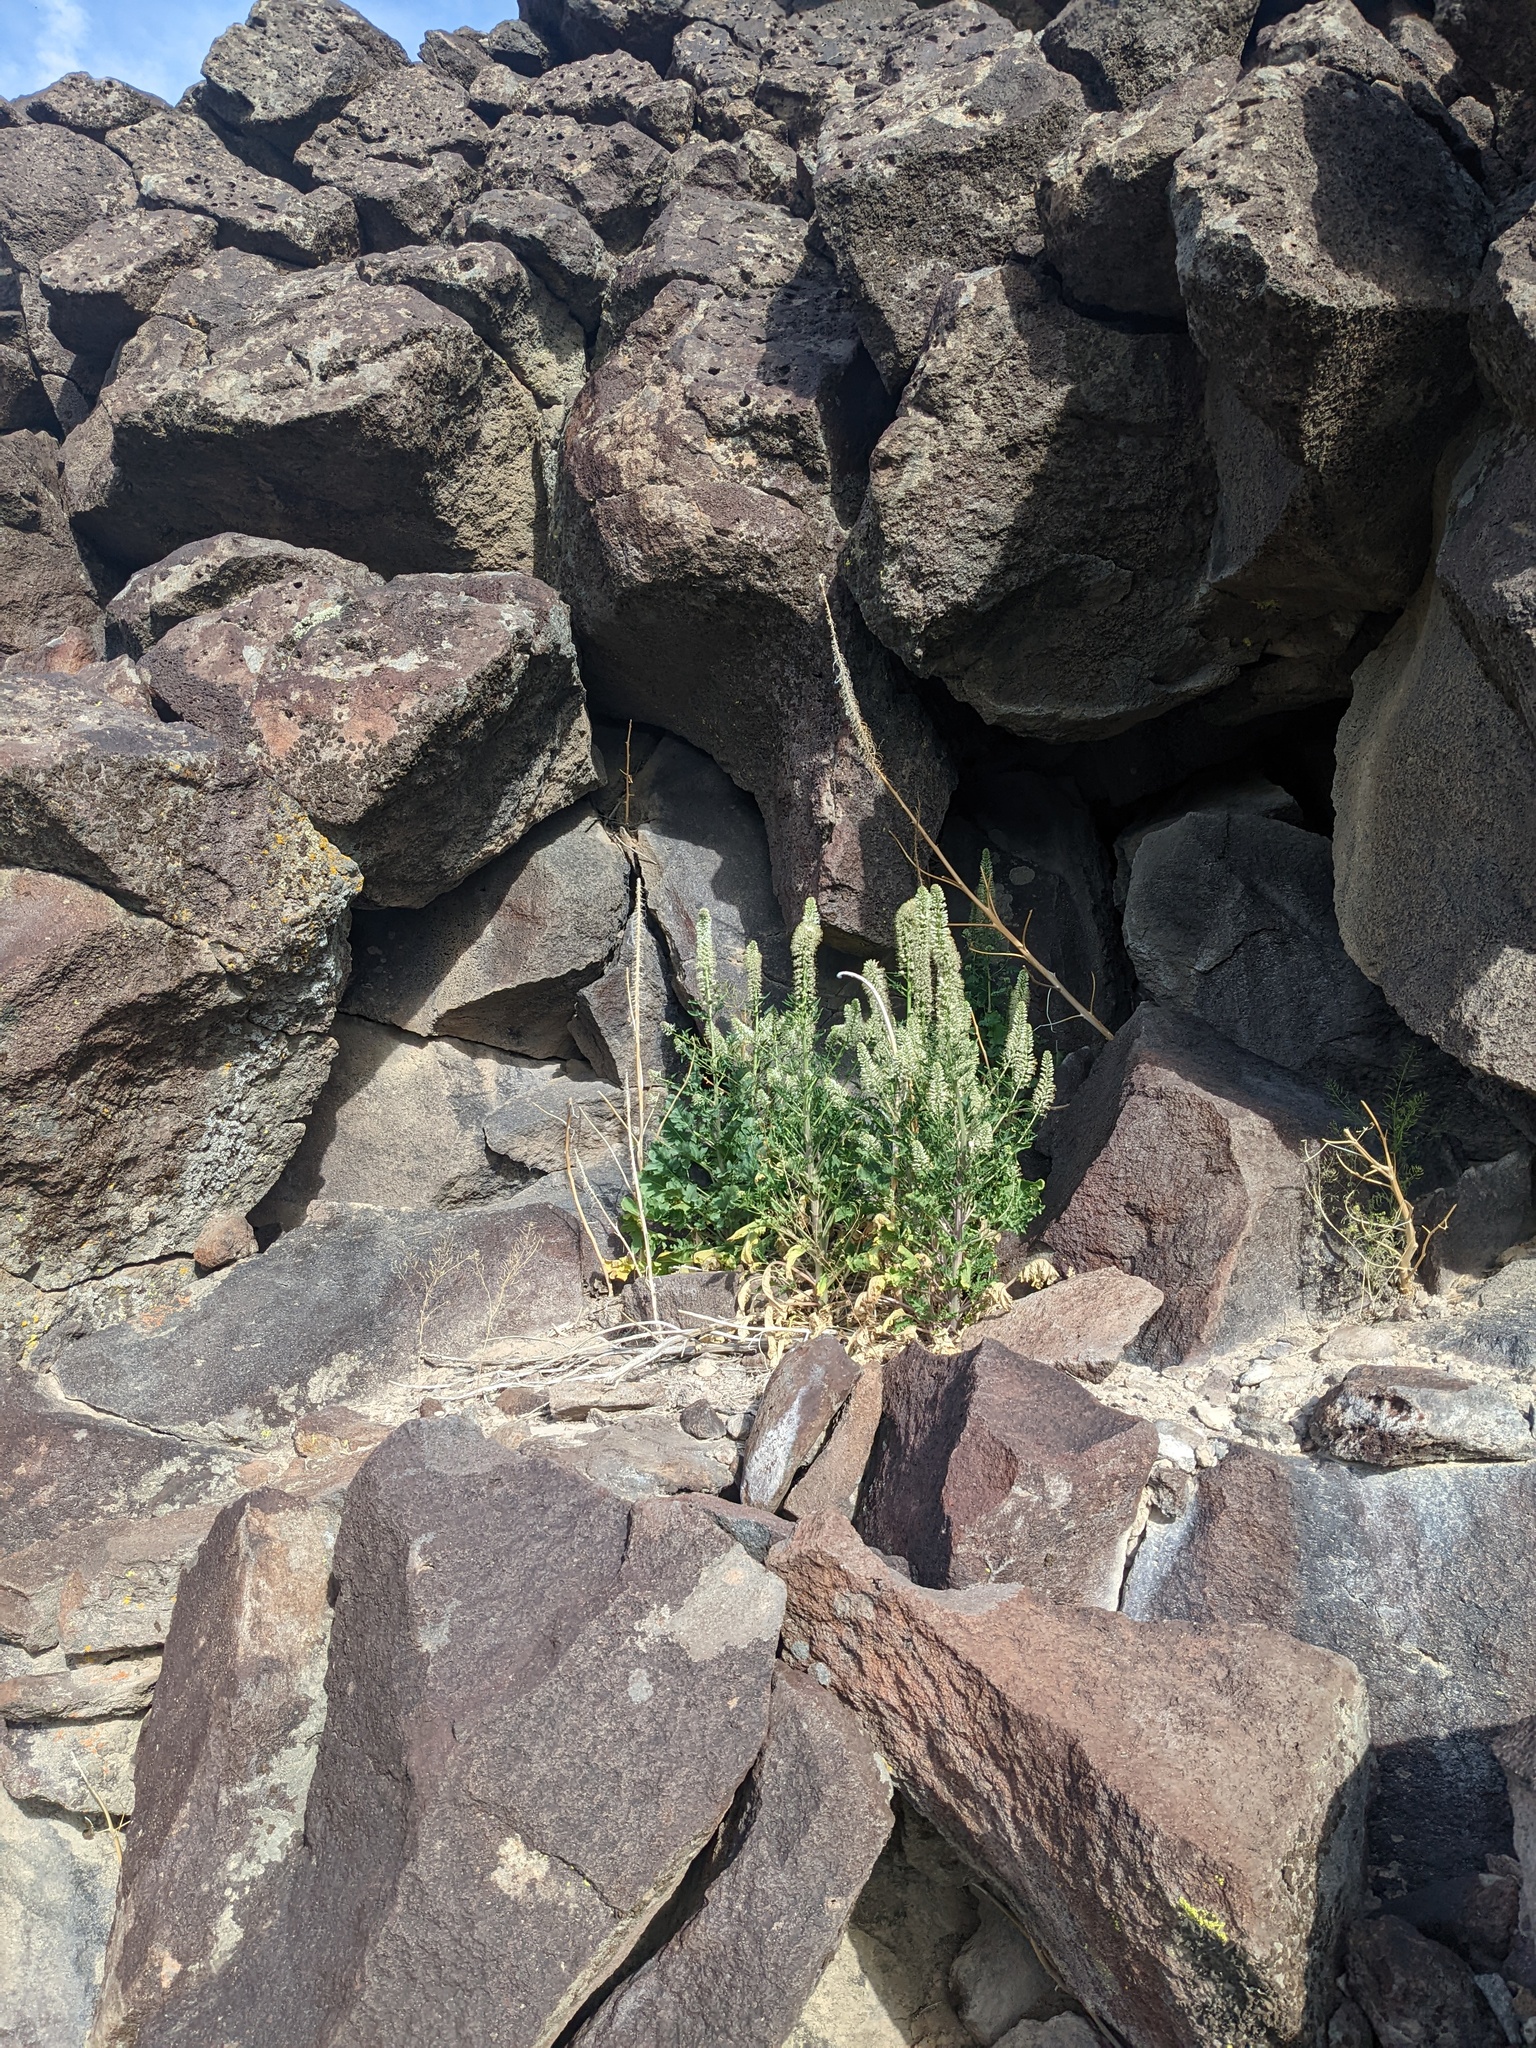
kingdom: Plantae
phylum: Tracheophyta
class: Magnoliopsida
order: Brassicales
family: Brassicaceae
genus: Thelypodium
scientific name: Thelypodium laciniatum
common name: Cut-leaved thelypody
